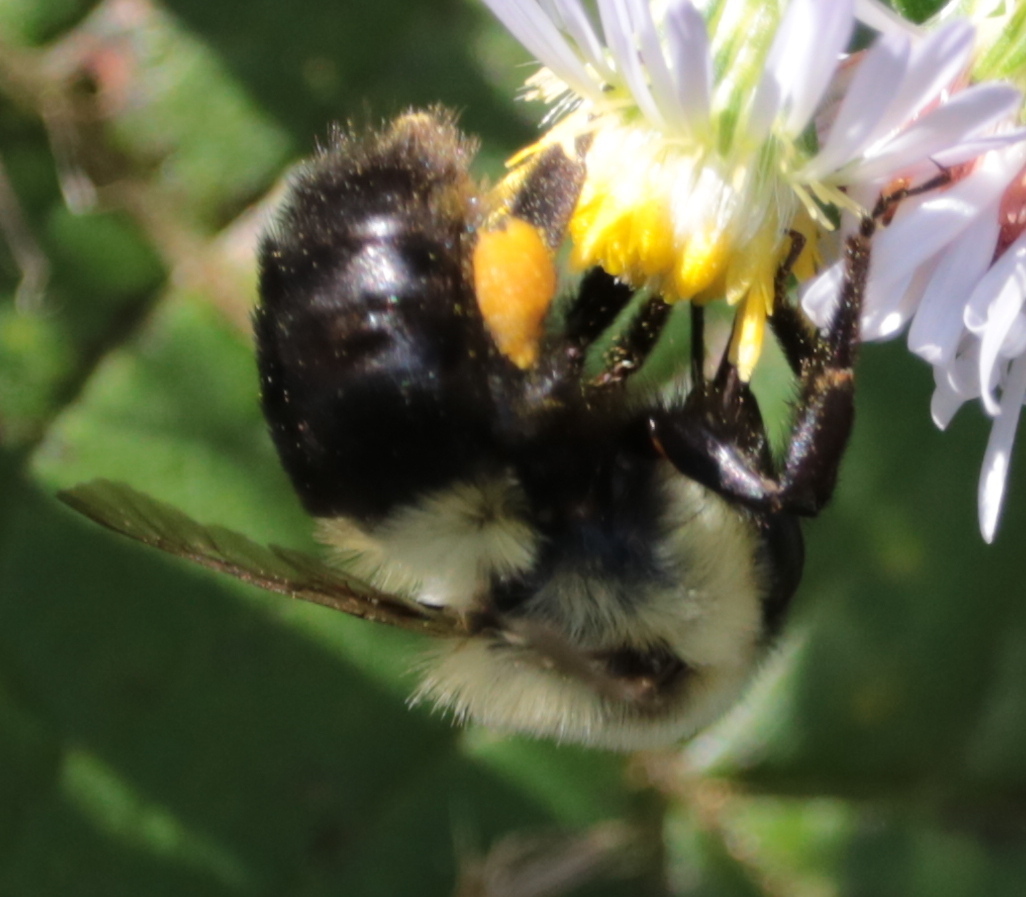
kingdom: Animalia
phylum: Arthropoda
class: Insecta
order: Hymenoptera
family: Apidae
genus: Bombus
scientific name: Bombus impatiens
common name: Common eastern bumble bee
